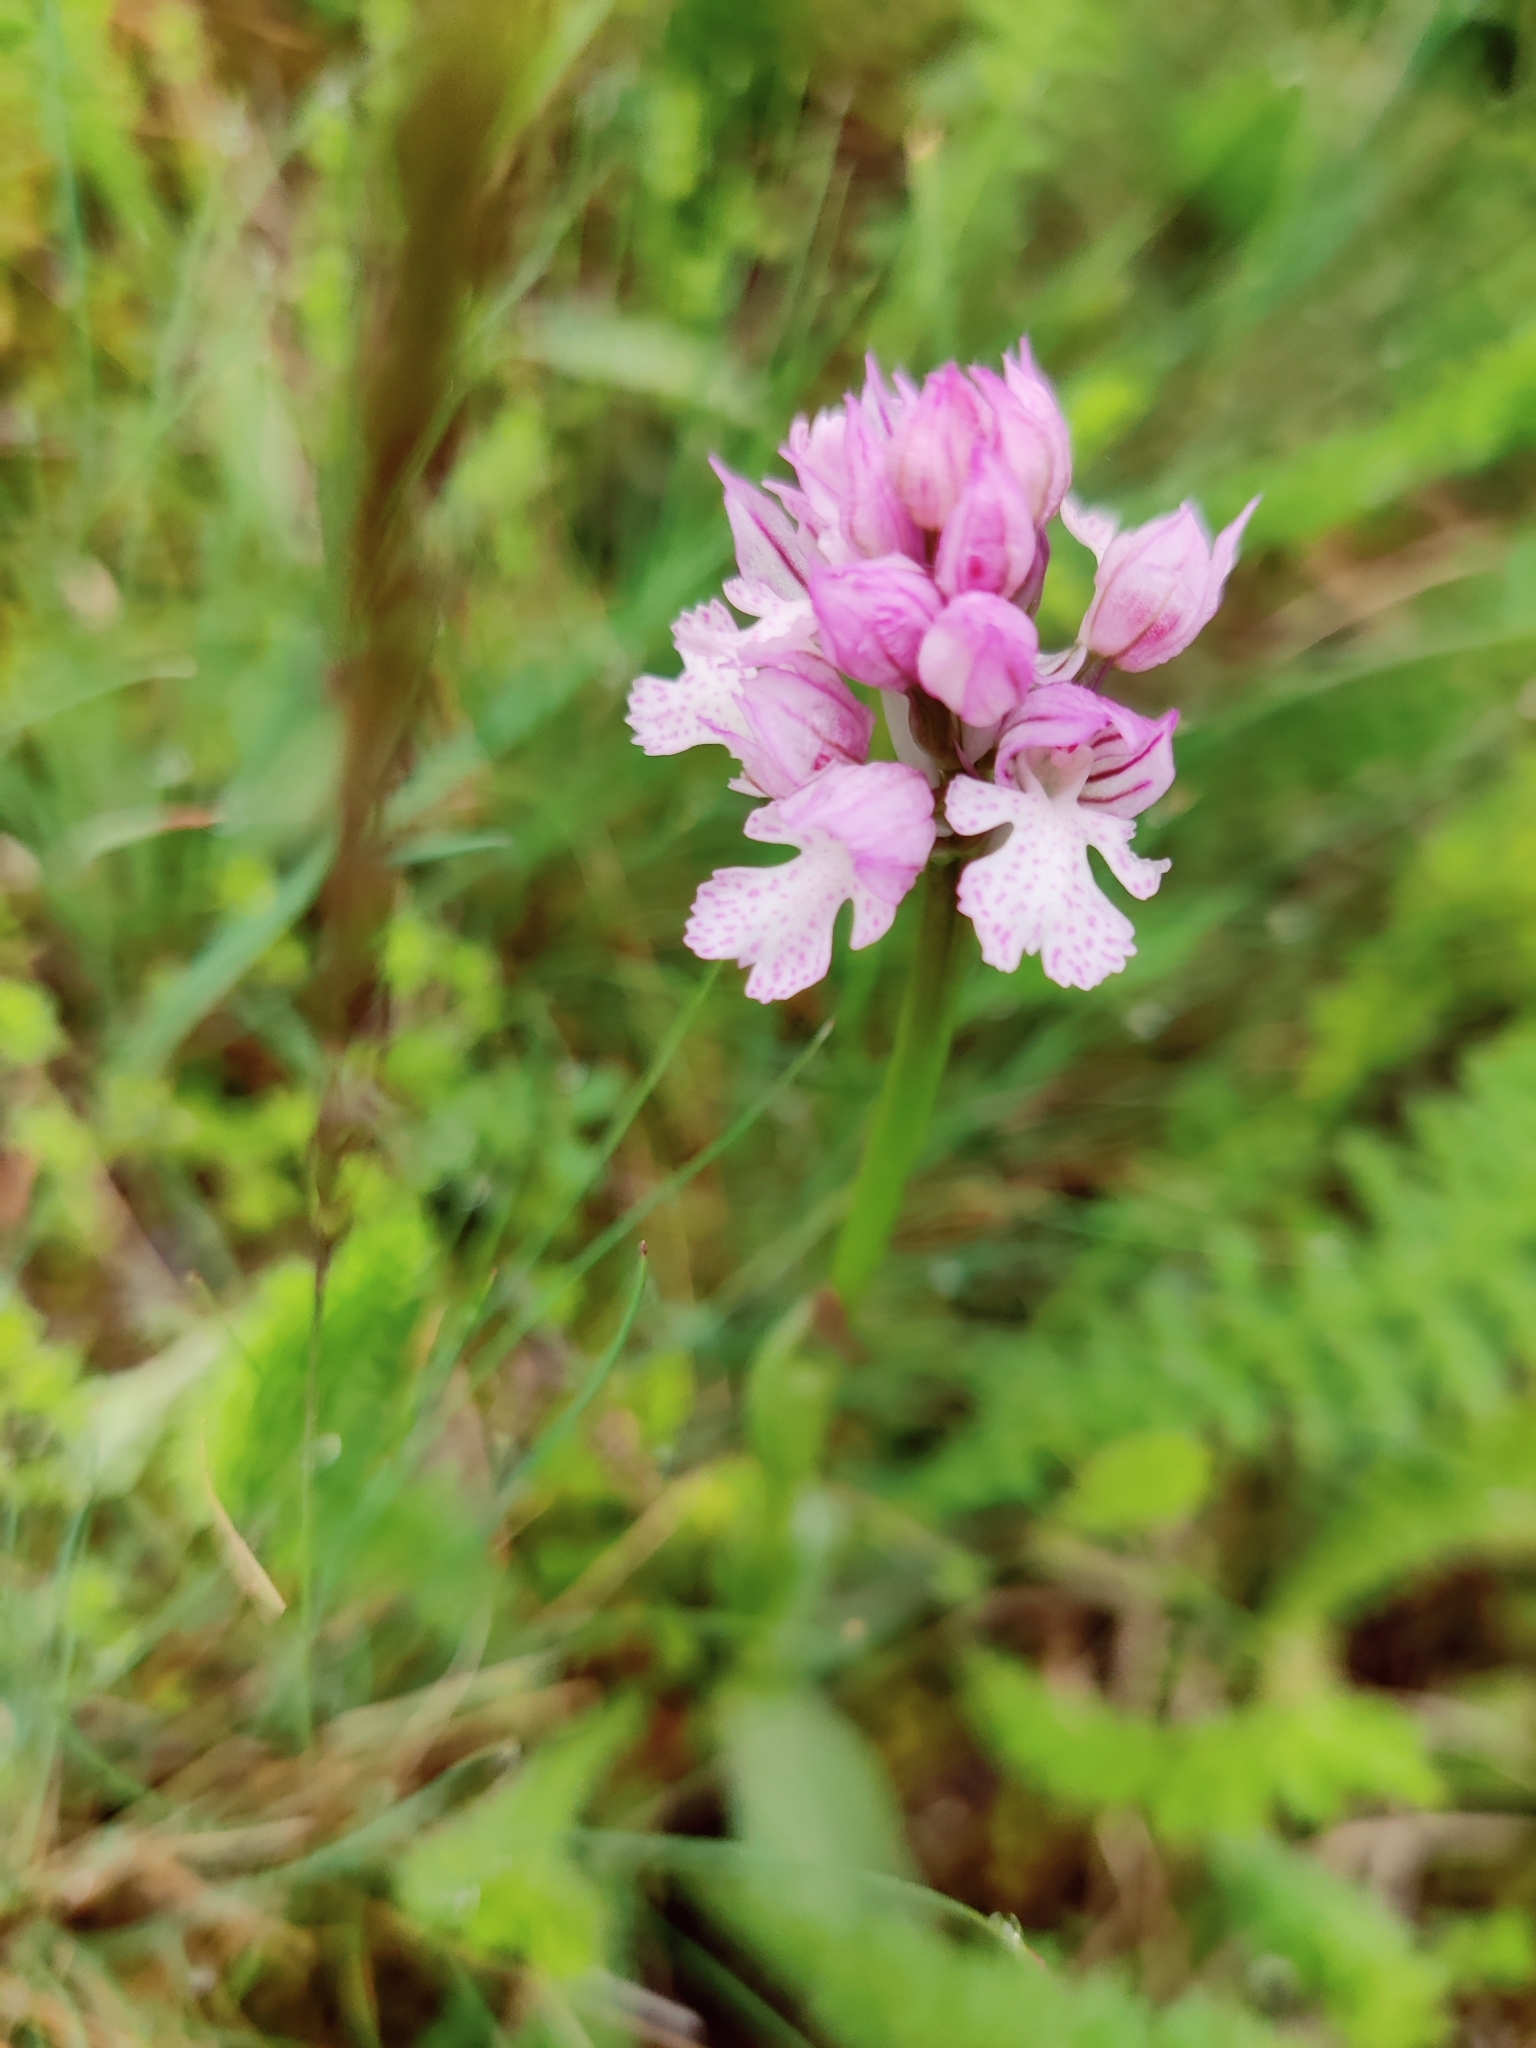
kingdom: Plantae
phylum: Tracheophyta
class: Liliopsida
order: Asparagales
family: Orchidaceae
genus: Neotinea
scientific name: Neotinea tridentata
